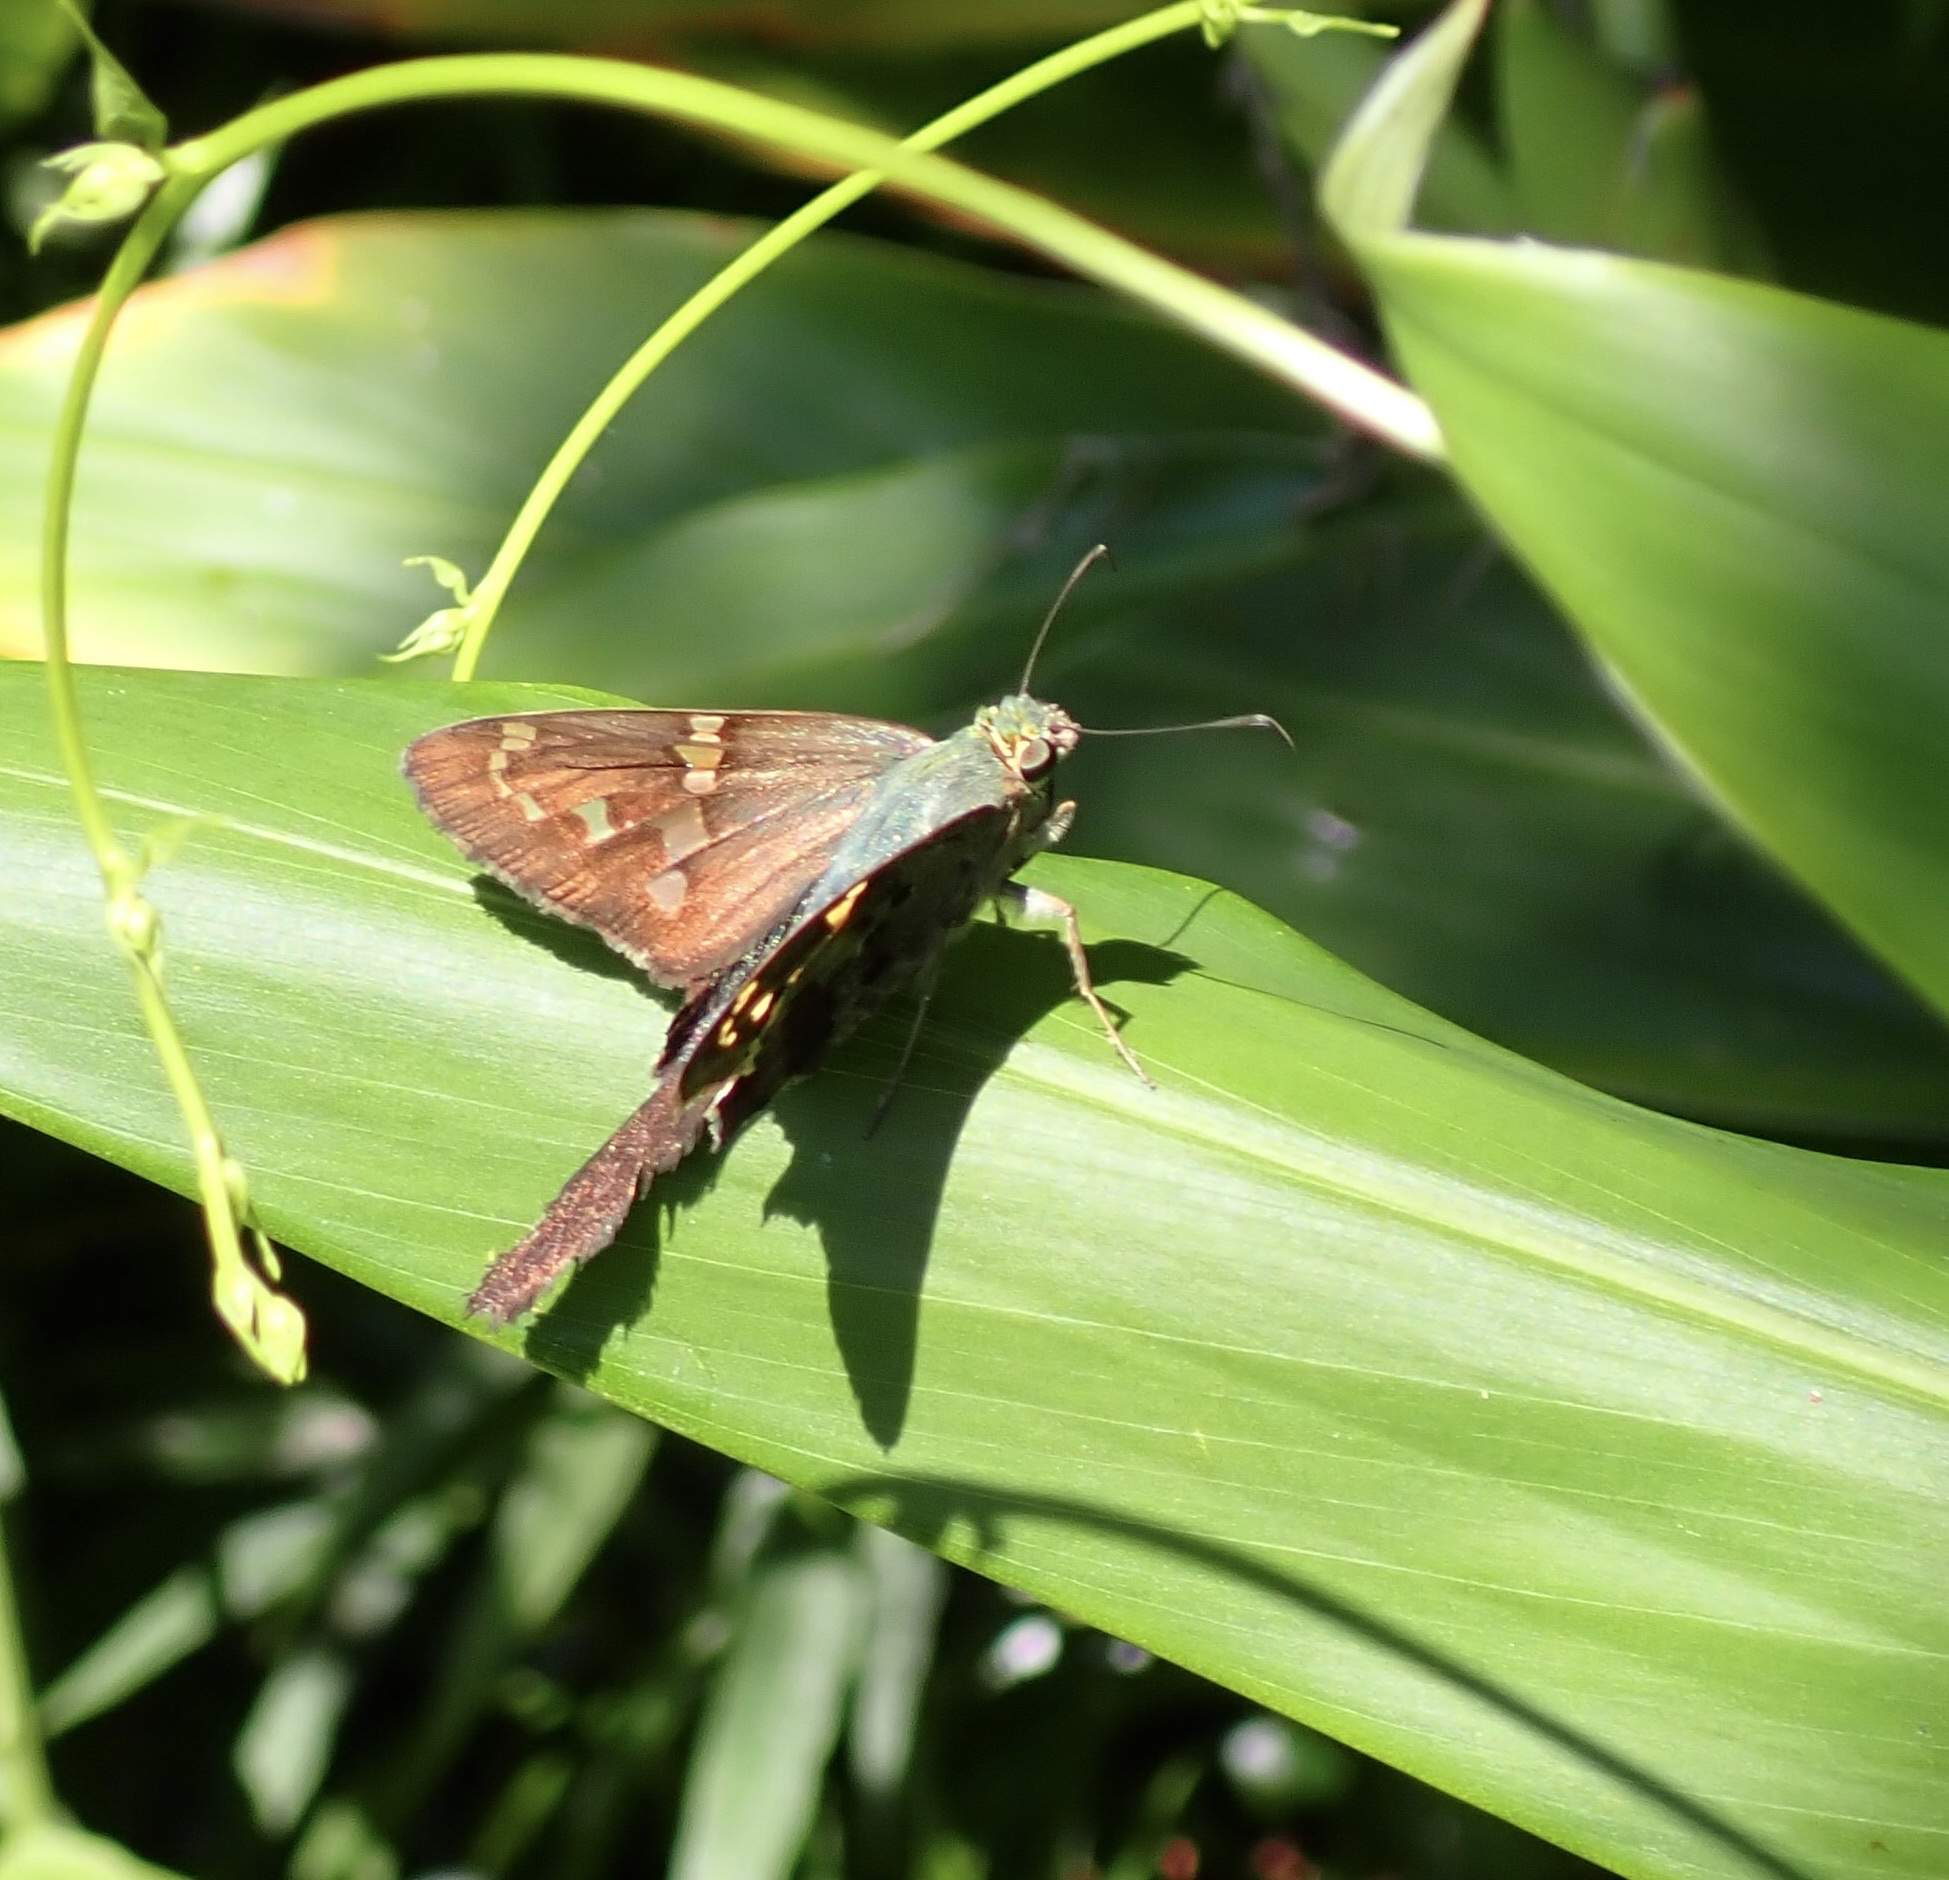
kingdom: Animalia
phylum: Arthropoda
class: Insecta
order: Lepidoptera
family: Hesperiidae
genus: Urbanus
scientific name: Urbanus proteus
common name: Long-tailed skipper
